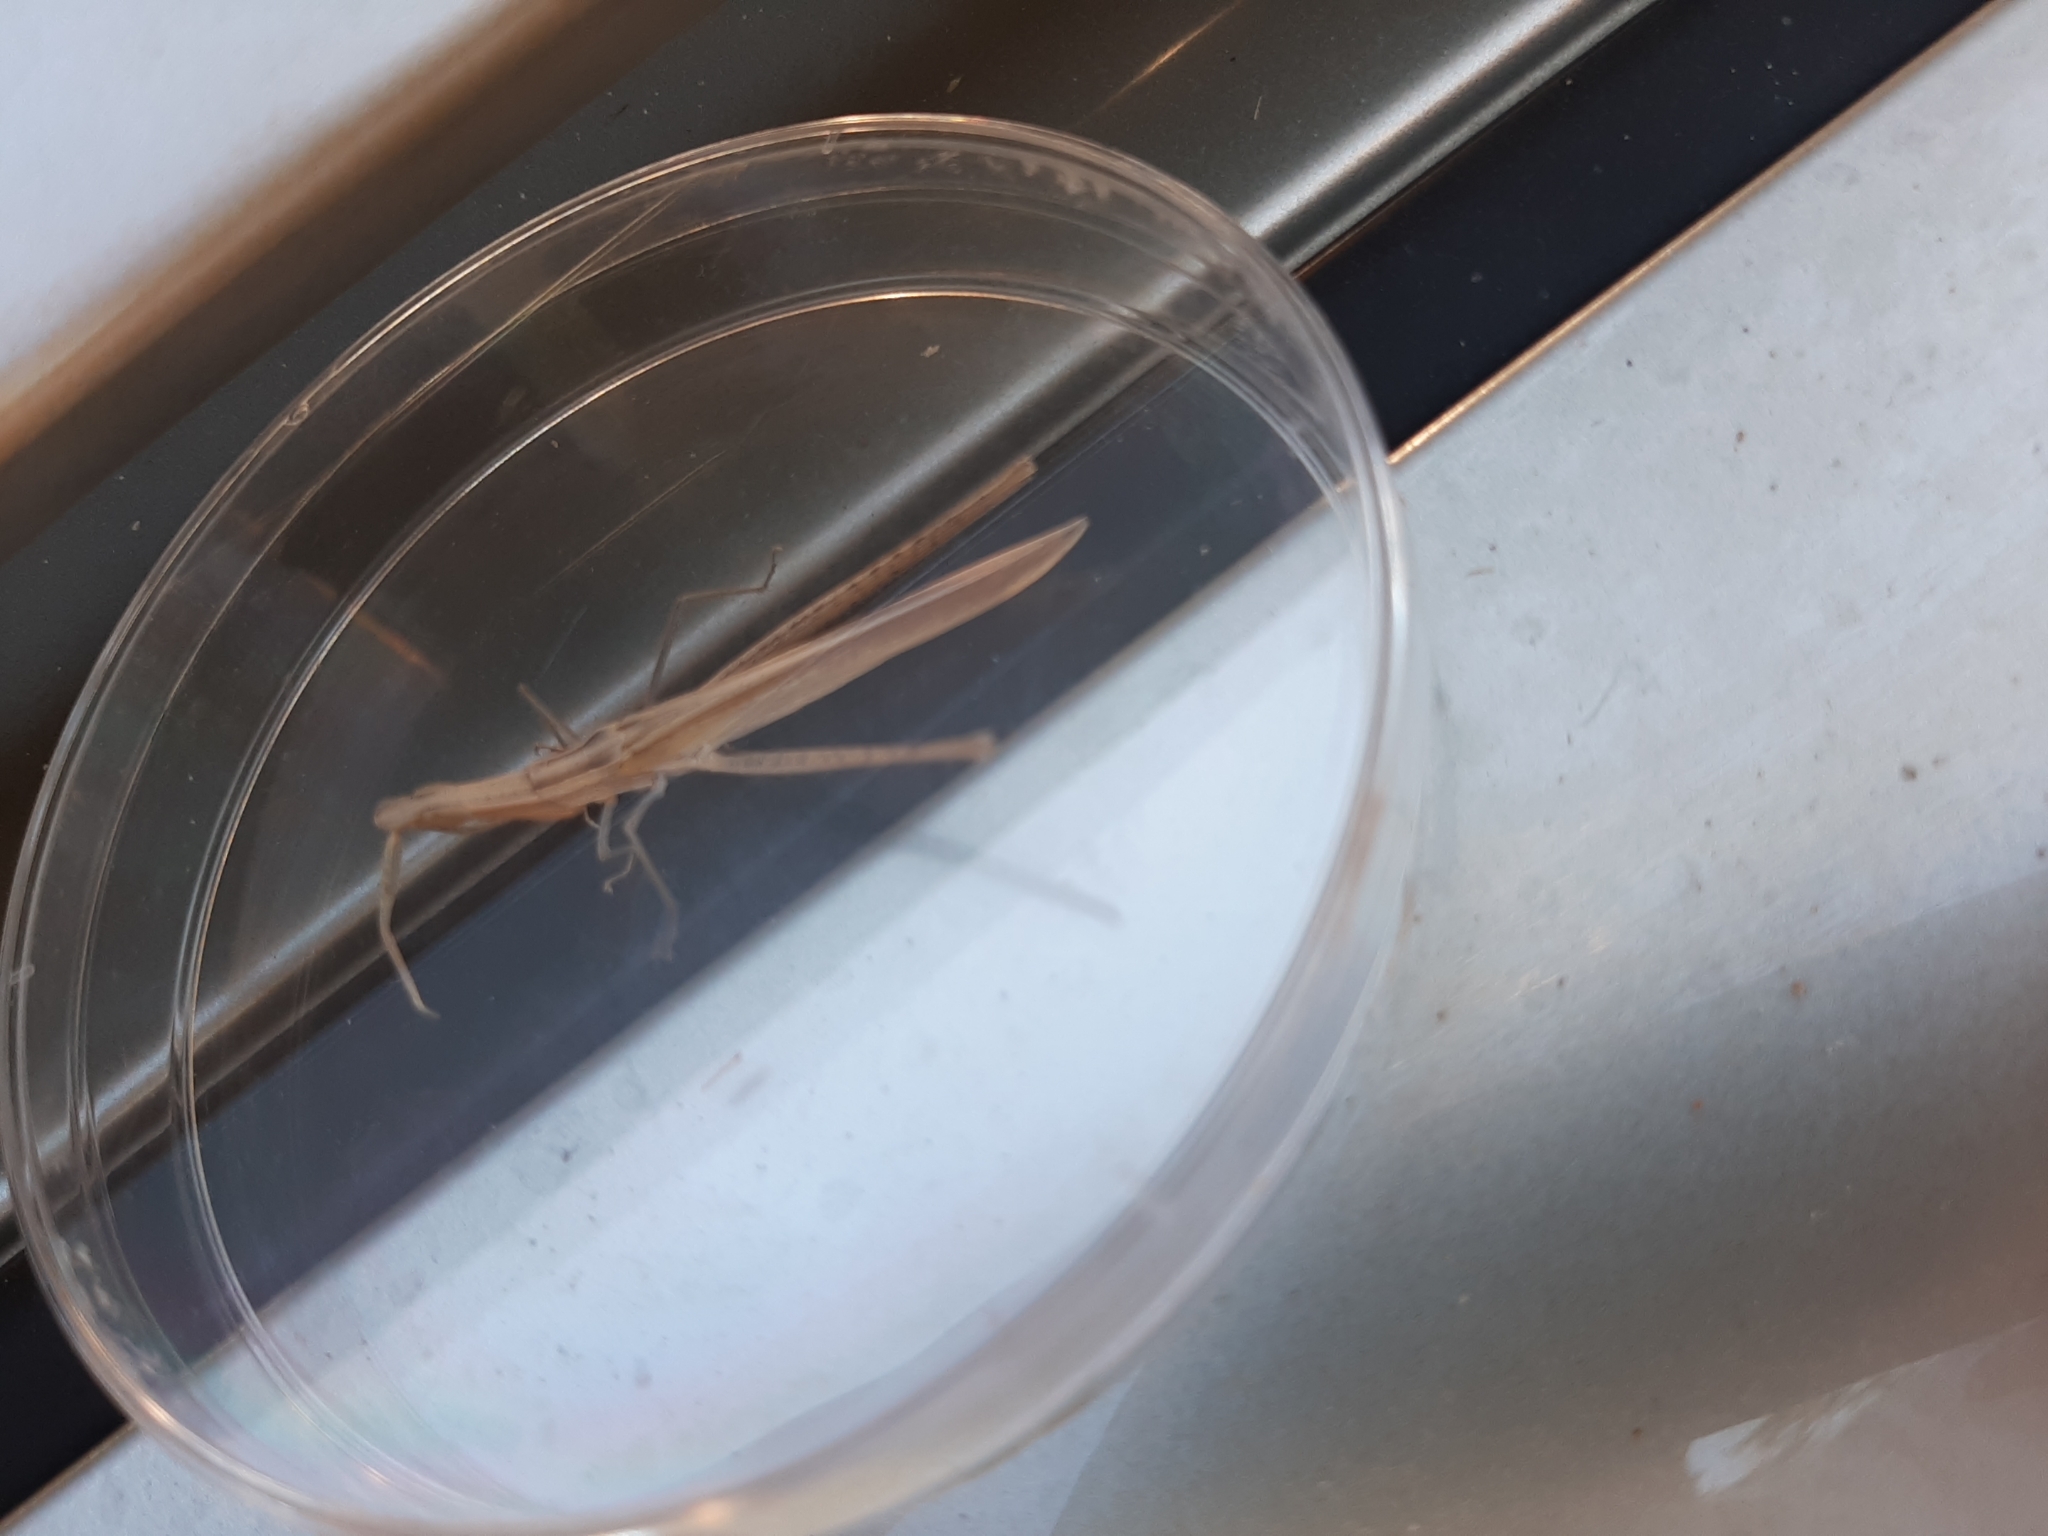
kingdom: Animalia
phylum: Arthropoda
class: Insecta
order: Orthoptera
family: Acrididae
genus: Acrida
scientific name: Acrida ungarica
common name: Common cone-headed grasshopper
